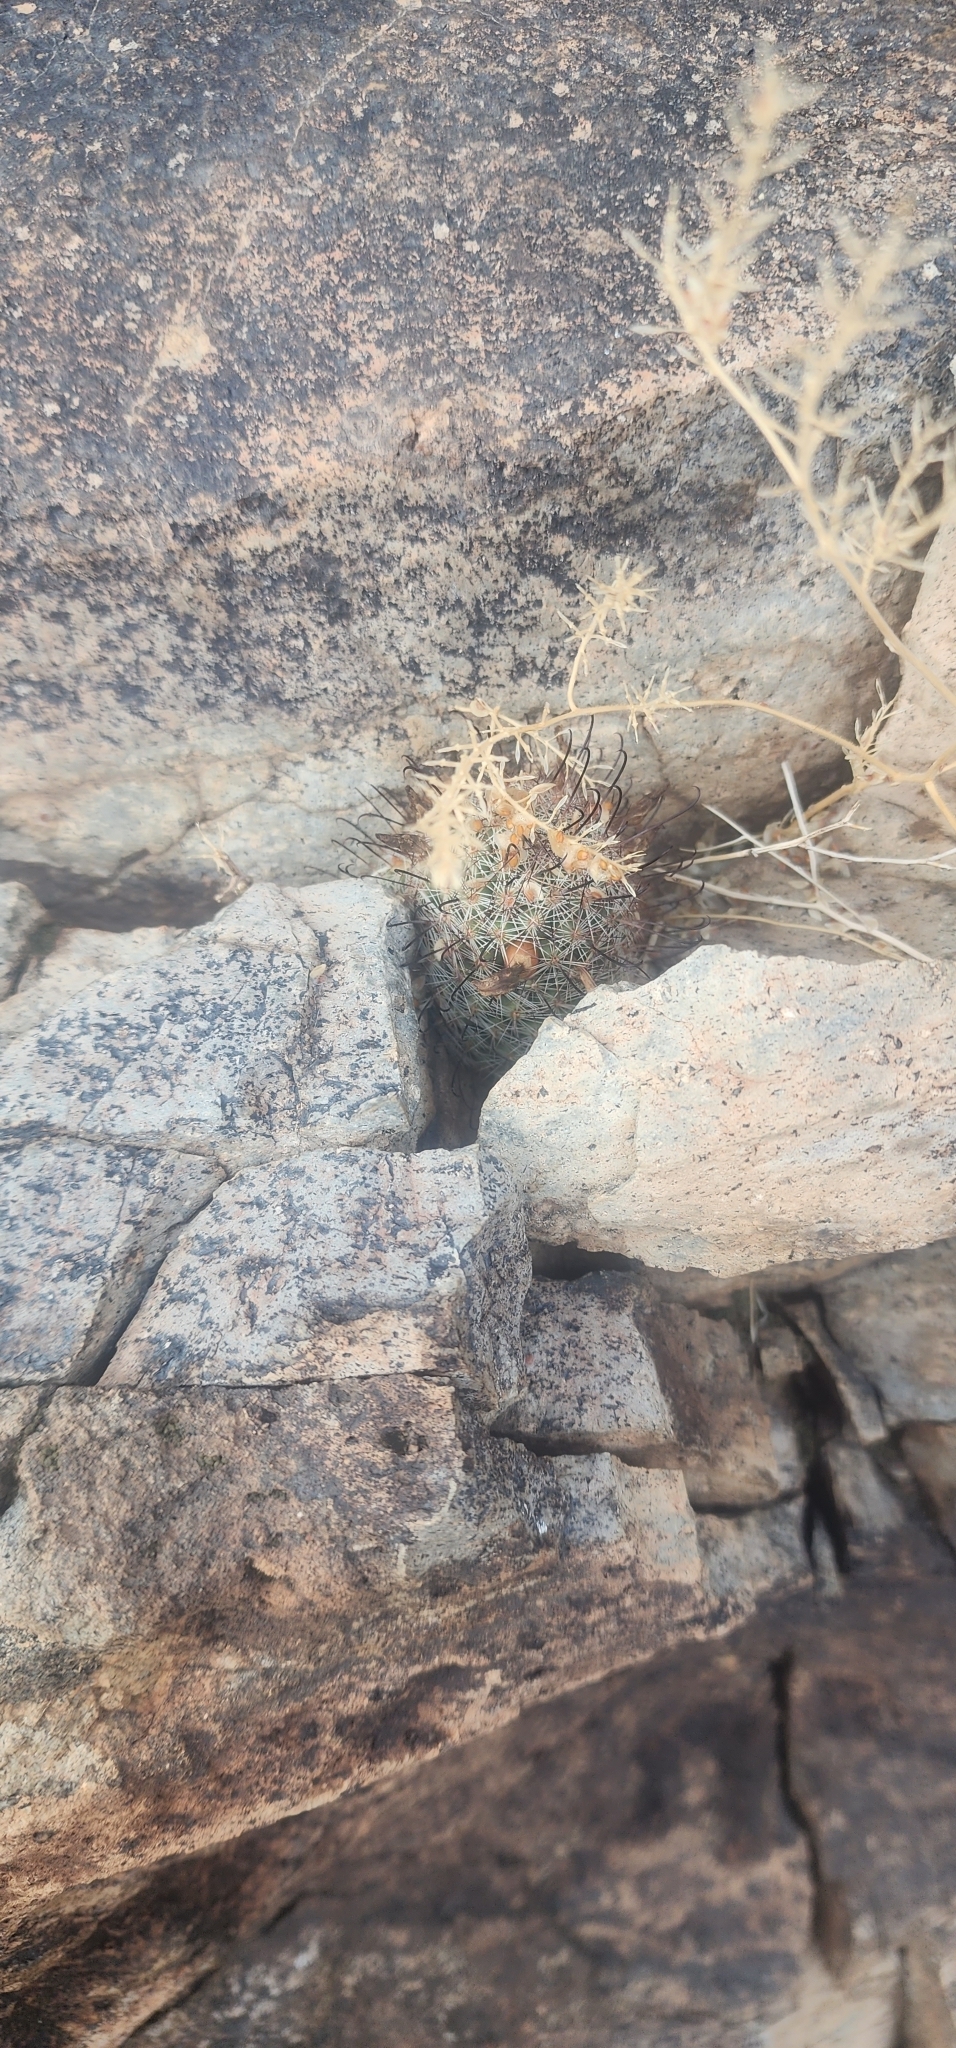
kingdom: Plantae
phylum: Tracheophyta
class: Magnoliopsida
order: Caryophyllales
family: Cactaceae
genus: Cochemiea
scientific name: Cochemiea grahamii
